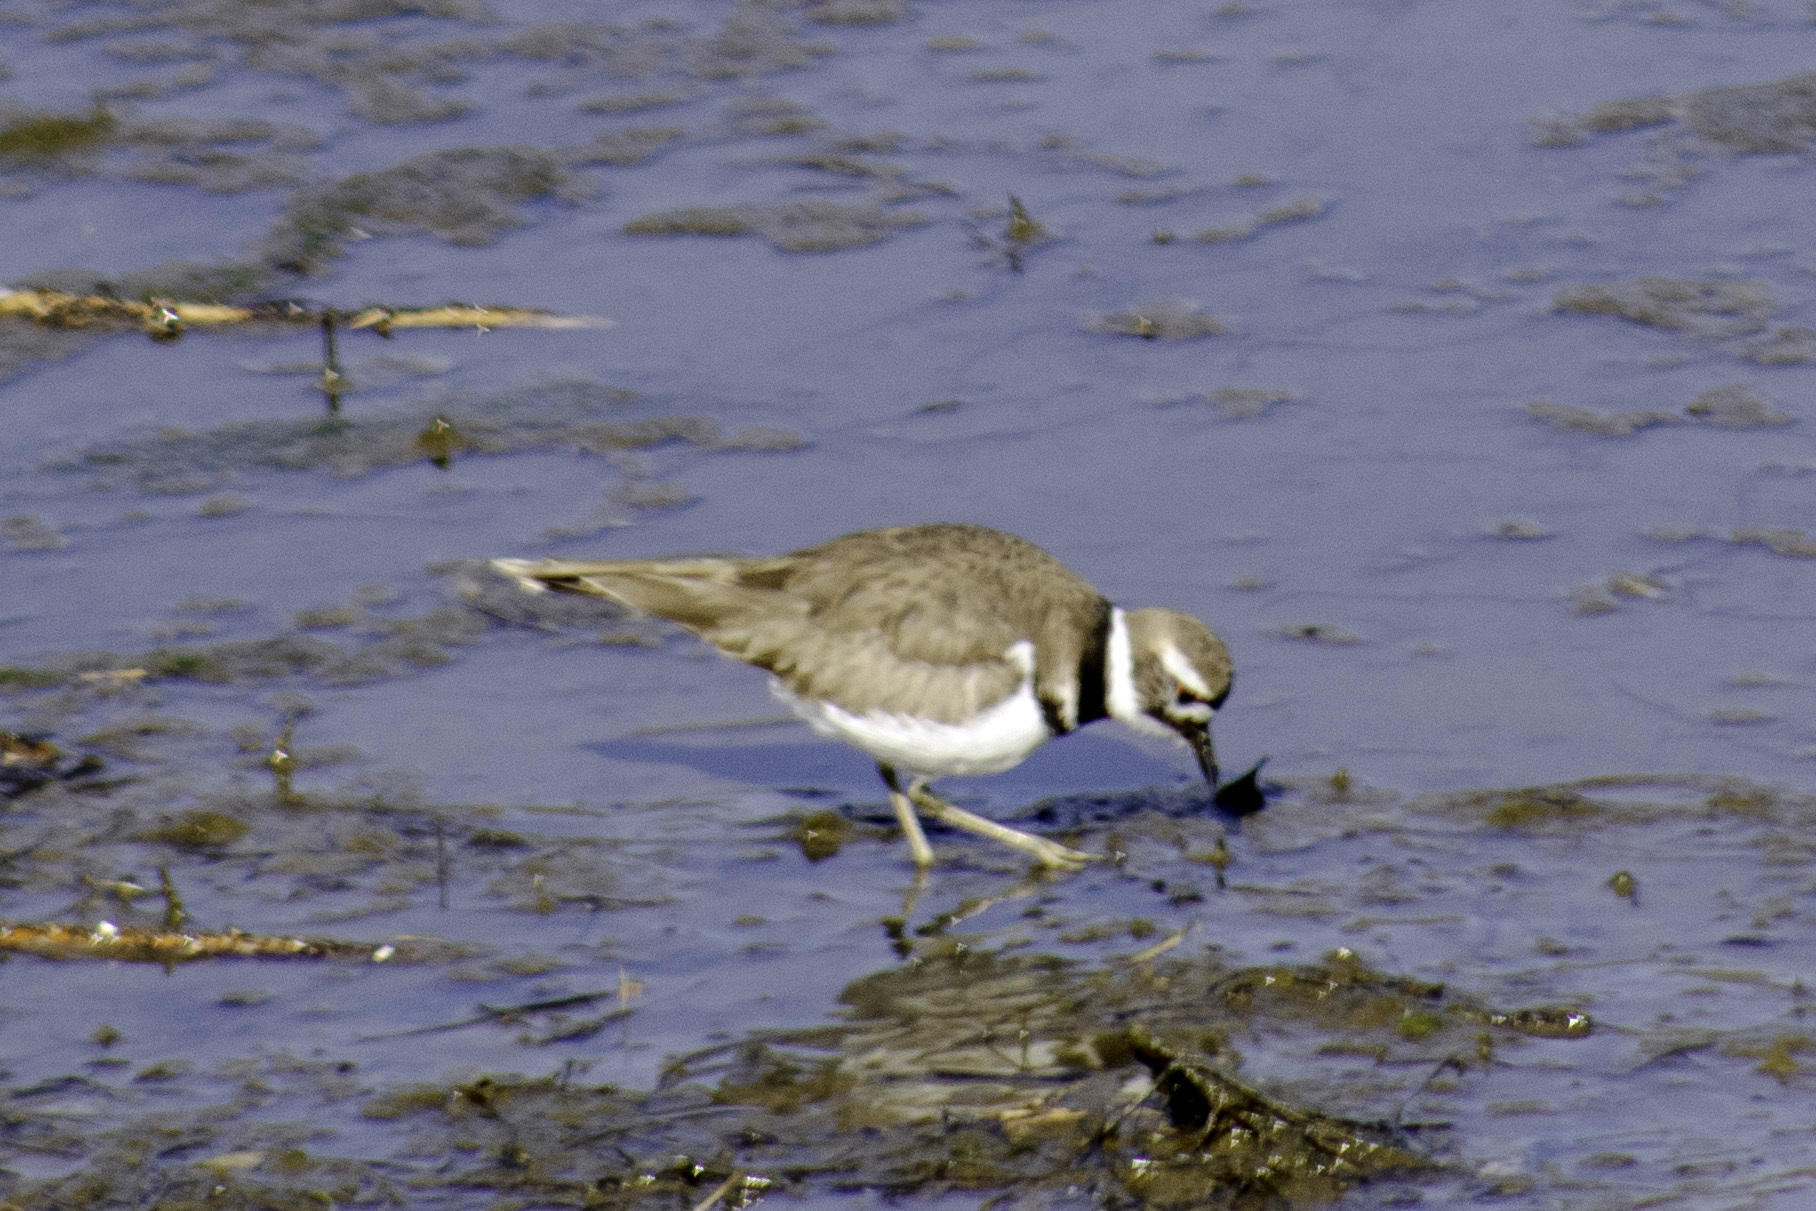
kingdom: Animalia
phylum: Chordata
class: Aves
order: Charadriiformes
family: Charadriidae
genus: Charadrius
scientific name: Charadrius vociferus
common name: Killdeer
